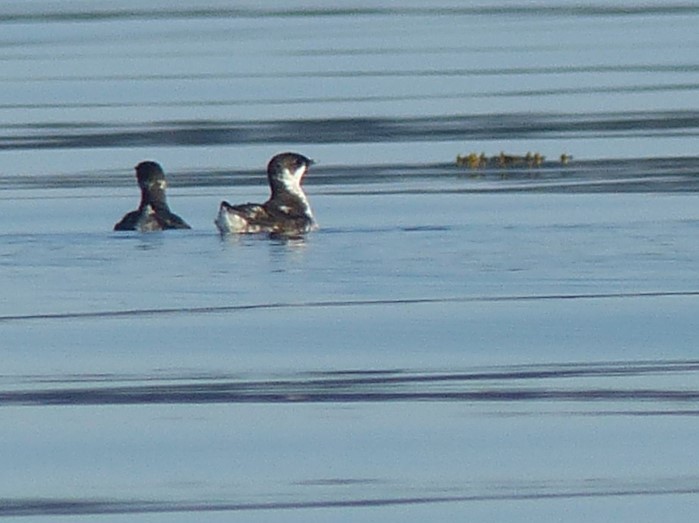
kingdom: Animalia
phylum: Chordata
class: Aves
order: Charadriiformes
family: Alcidae
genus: Brachyramphus
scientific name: Brachyramphus marmoratus
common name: Marbled murrelet
